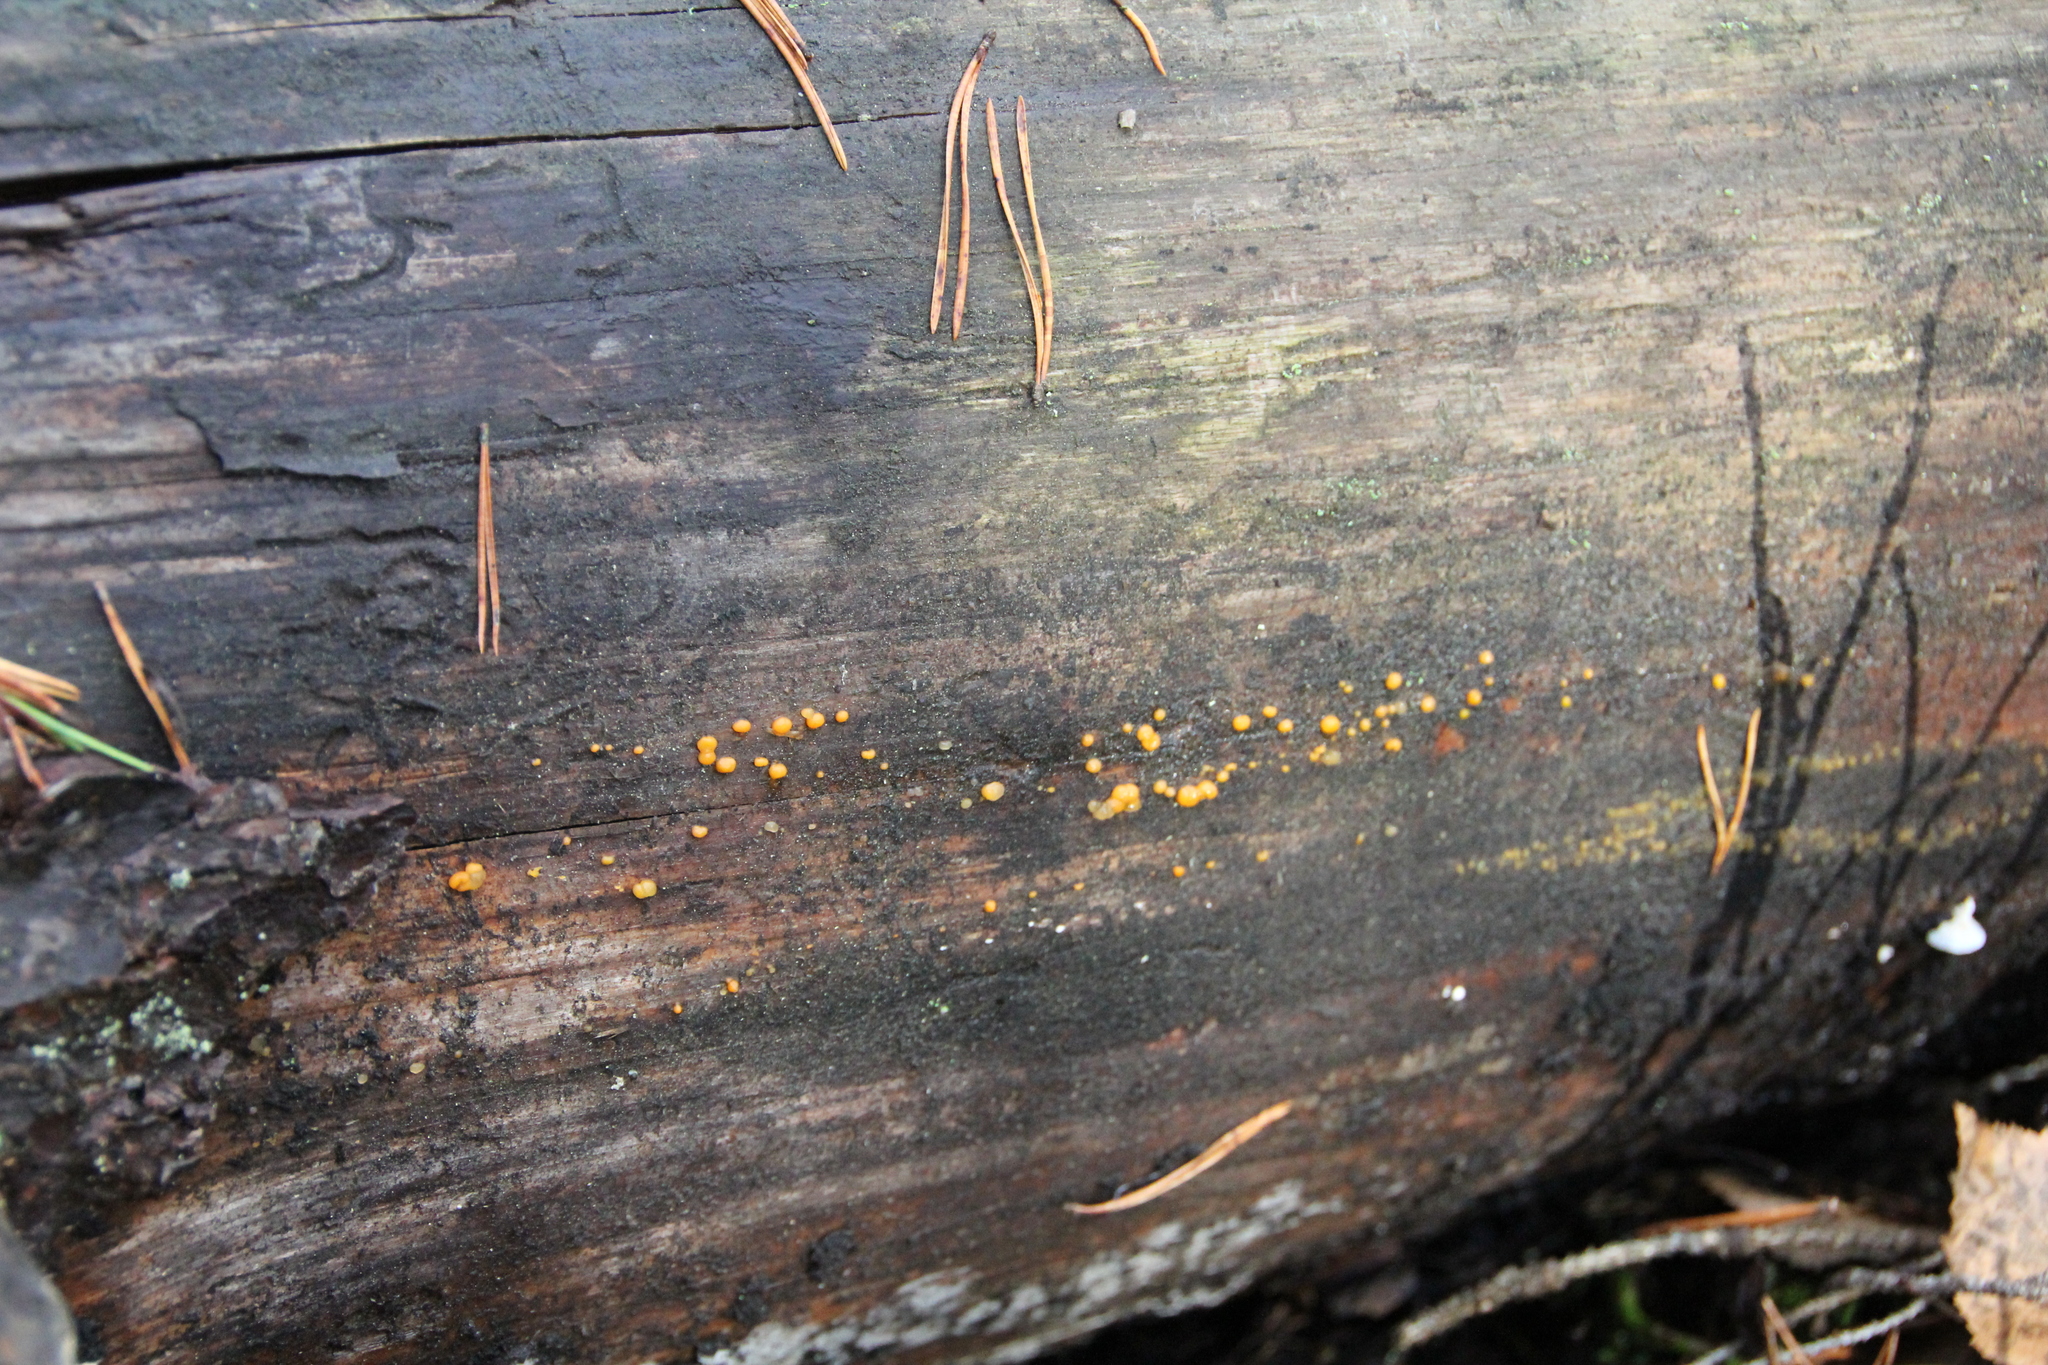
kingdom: Fungi
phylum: Basidiomycota
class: Dacrymycetes
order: Dacrymycetales
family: Dacrymycetaceae
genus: Dacrymyces
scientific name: Dacrymyces stillatus
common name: Common jelly spot
